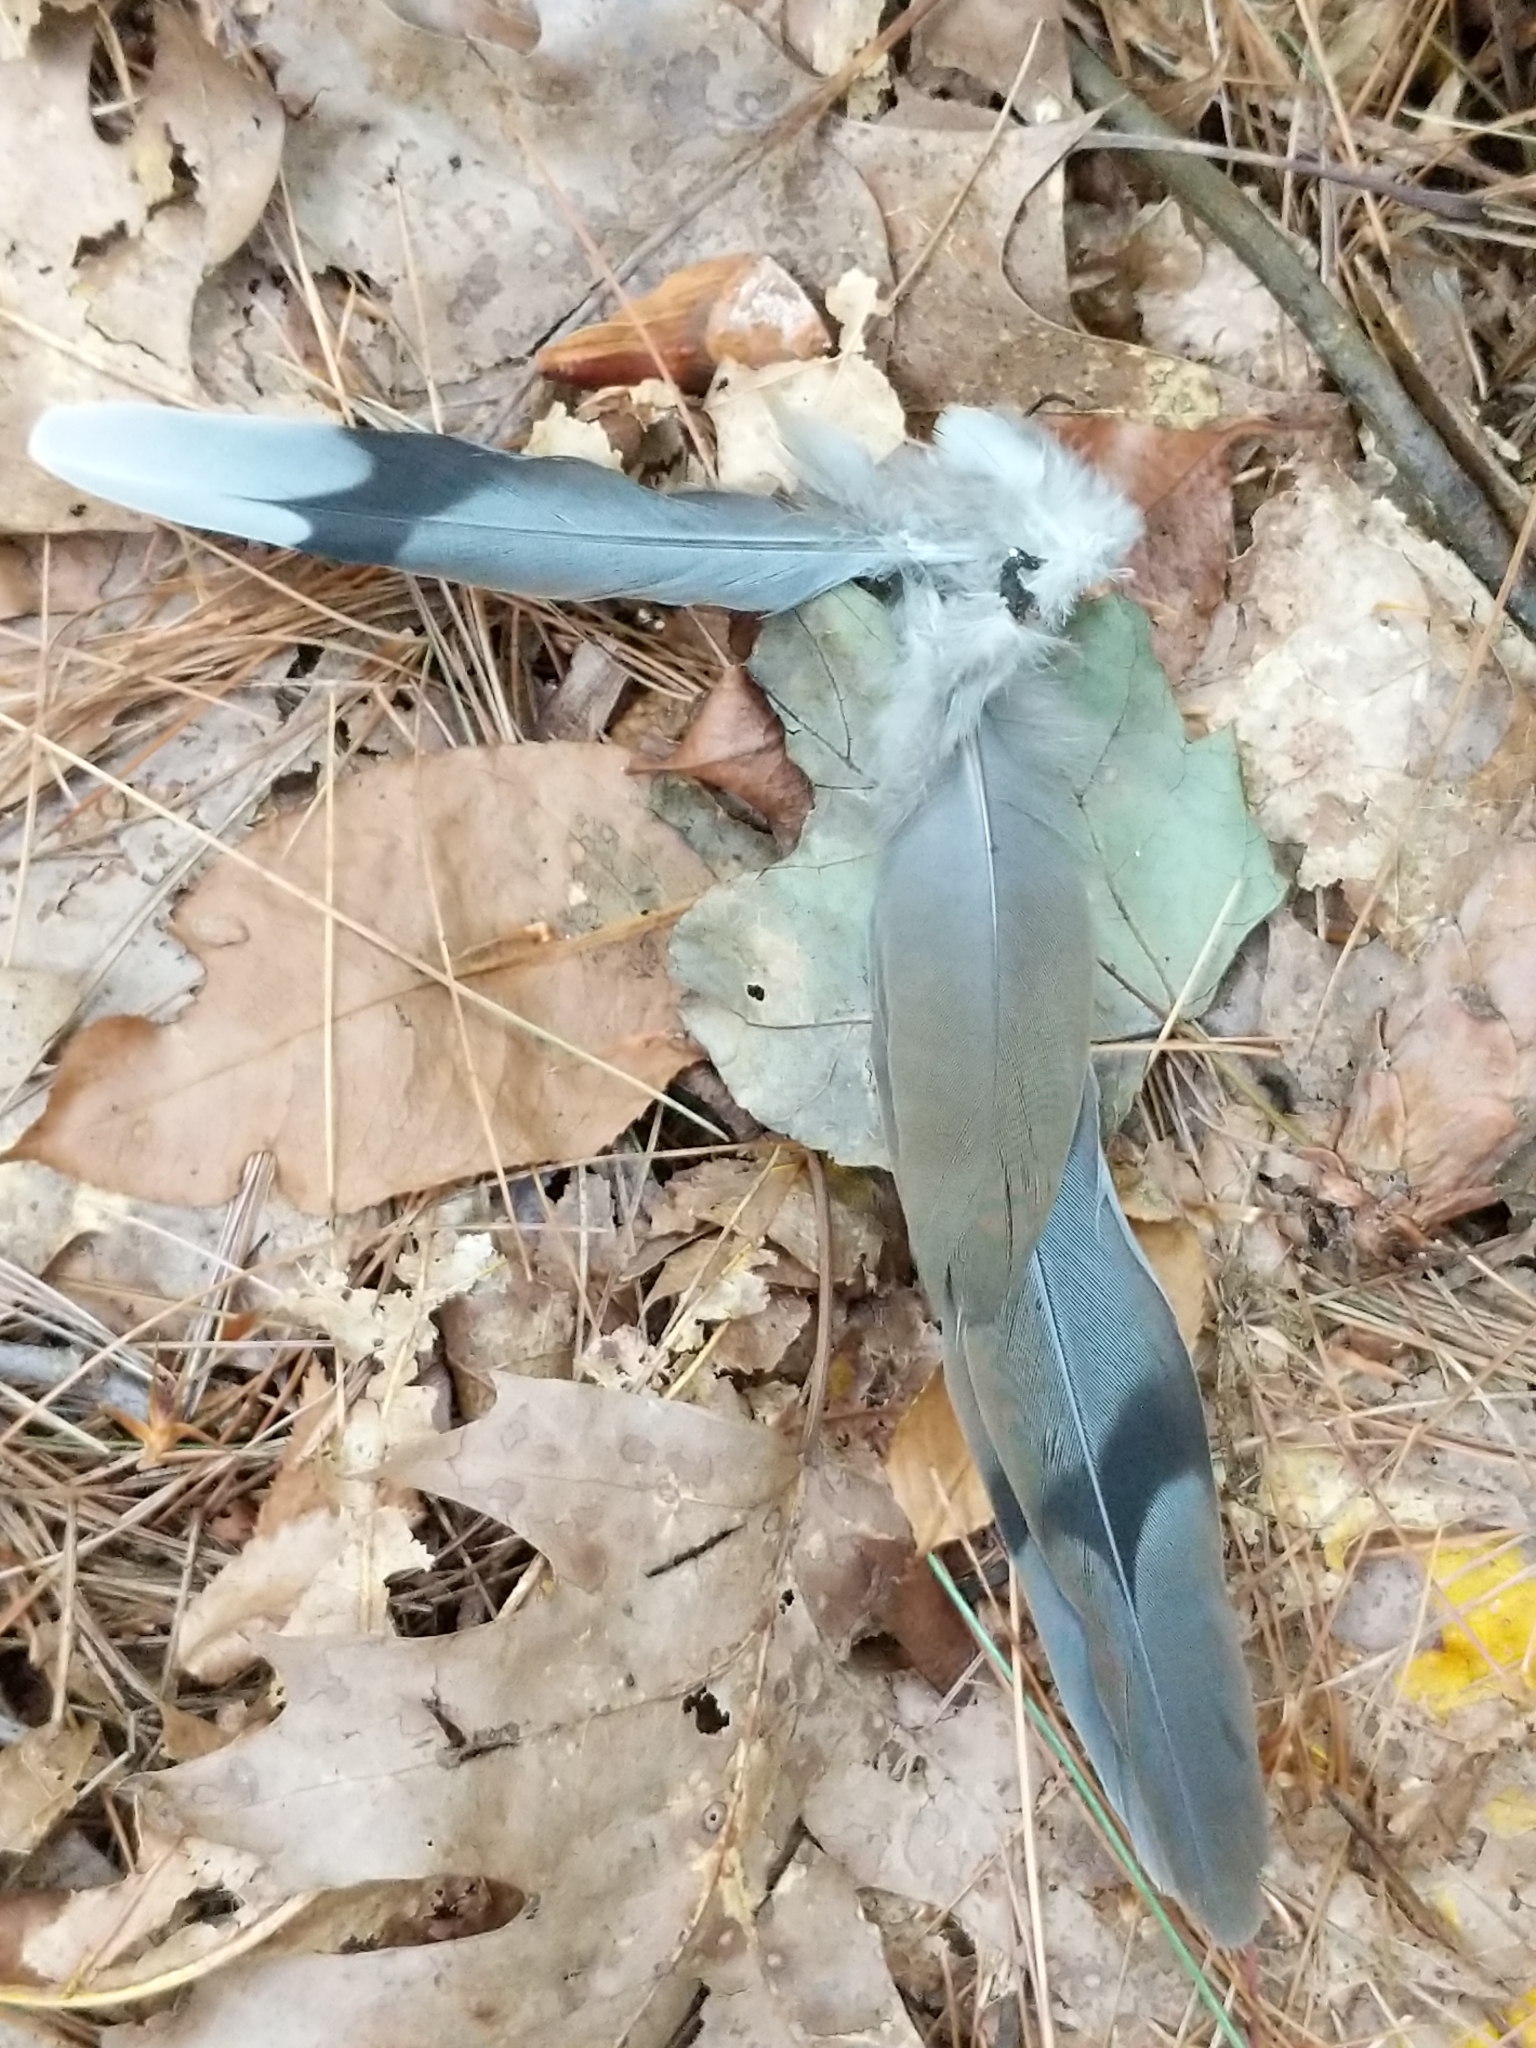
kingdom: Animalia
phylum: Chordata
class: Aves
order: Columbiformes
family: Columbidae
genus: Zenaida
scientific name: Zenaida macroura
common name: Mourning dove
